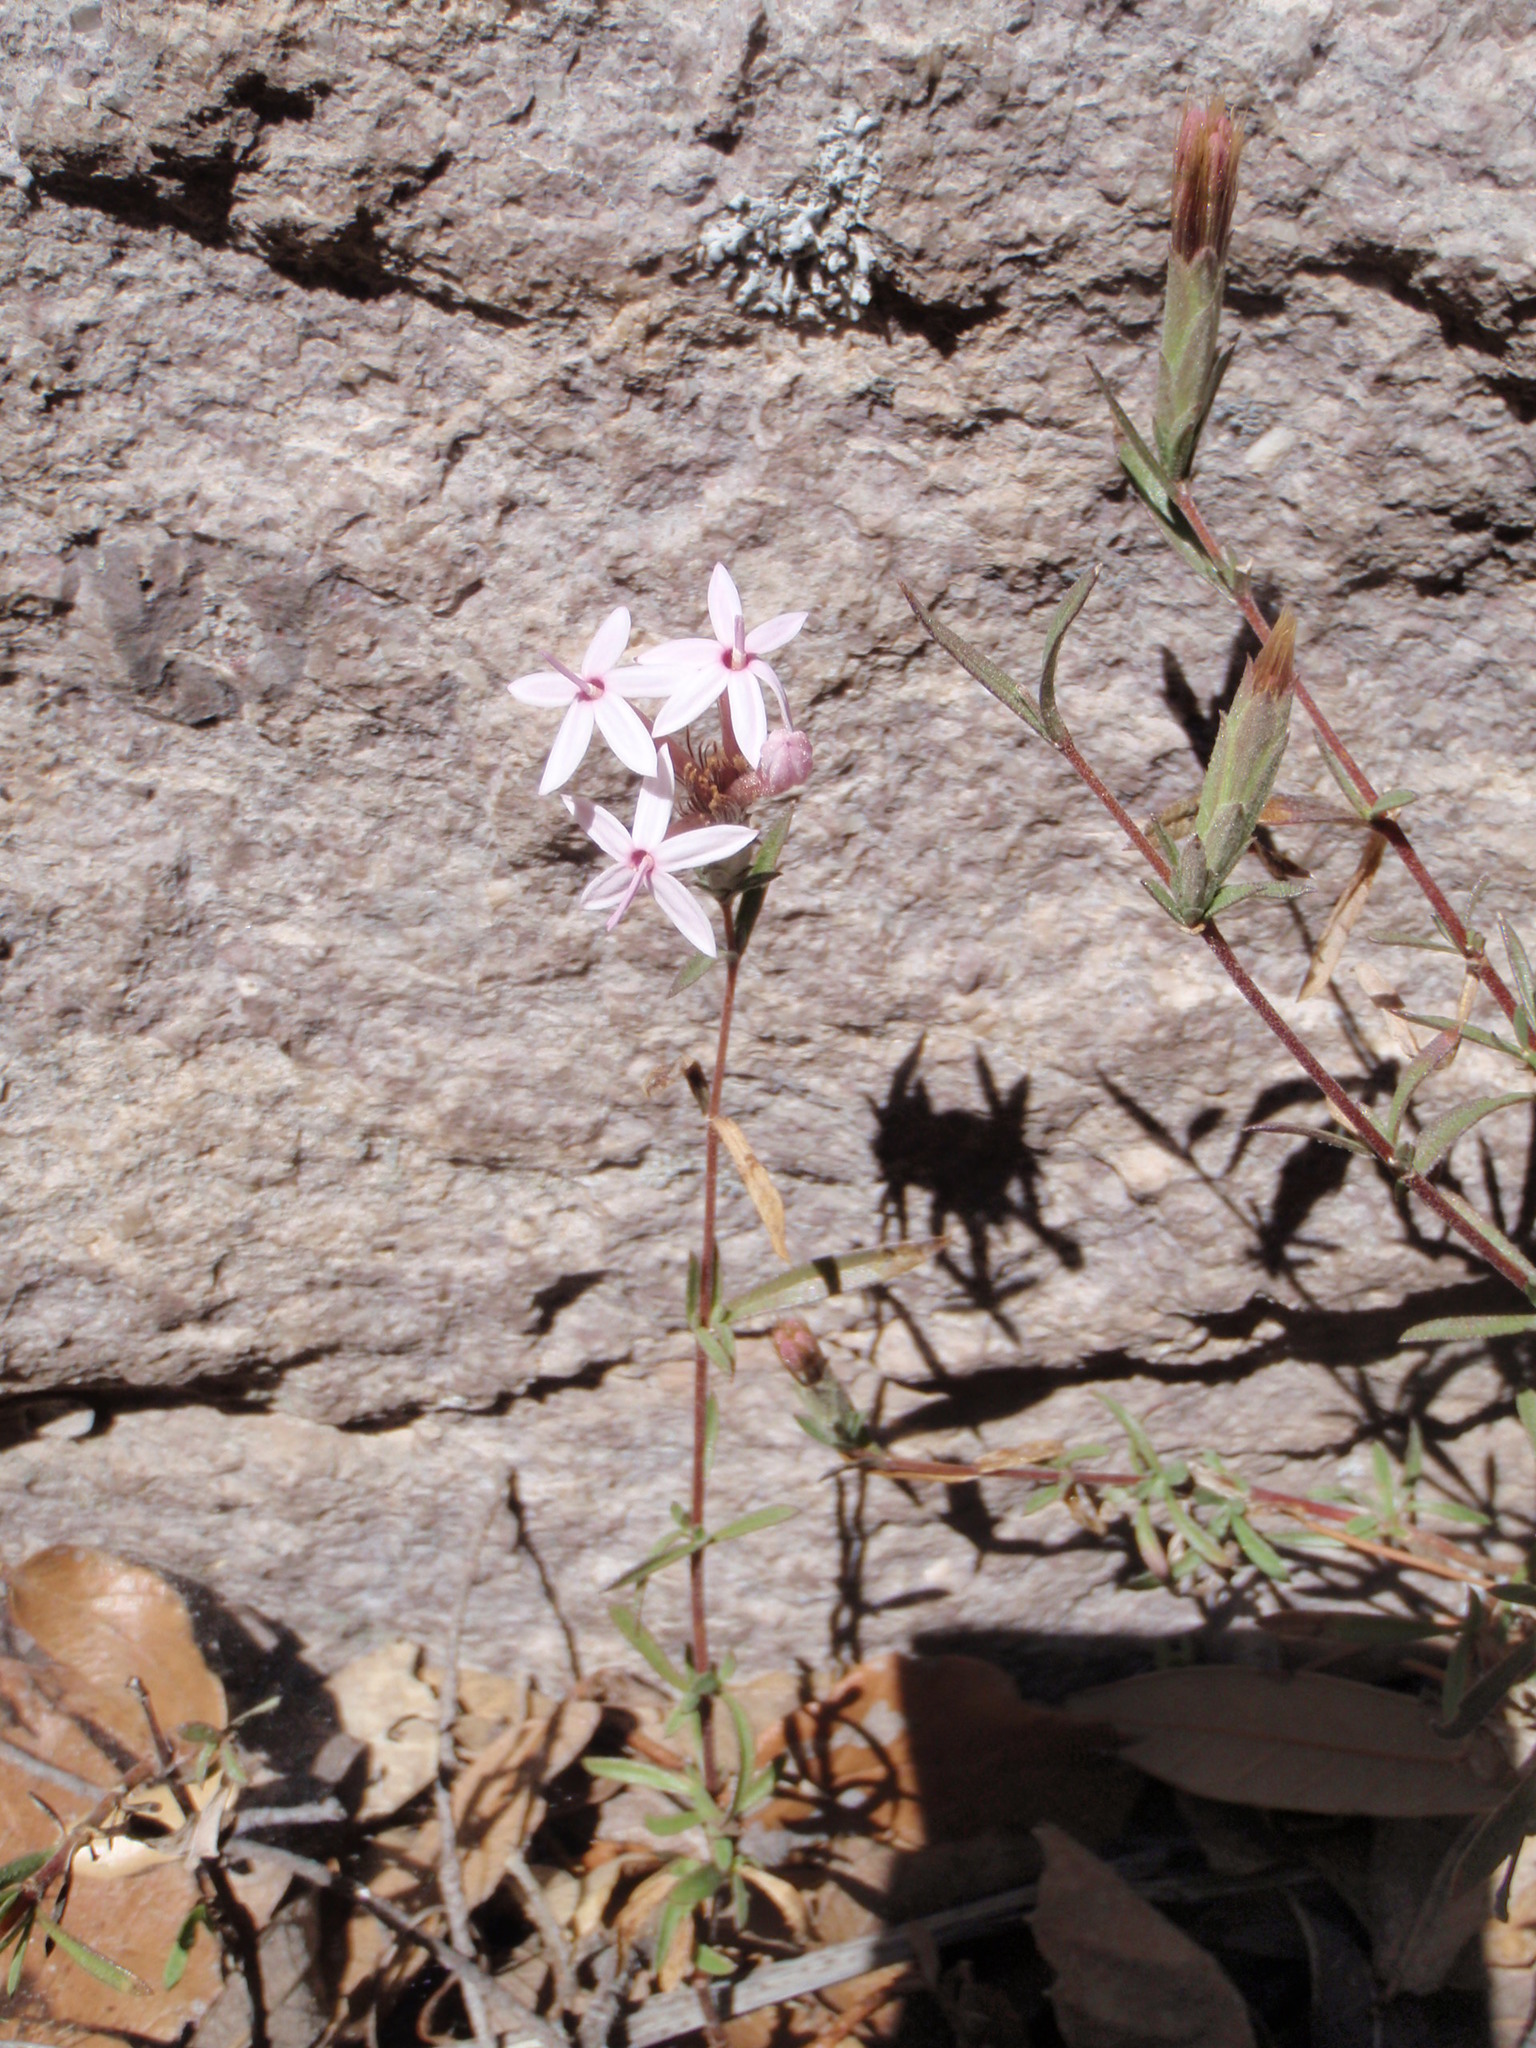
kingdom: Plantae
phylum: Tracheophyta
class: Magnoliopsida
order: Asterales
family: Asteraceae
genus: Carphochaete
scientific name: Carphochaete bigelovii
